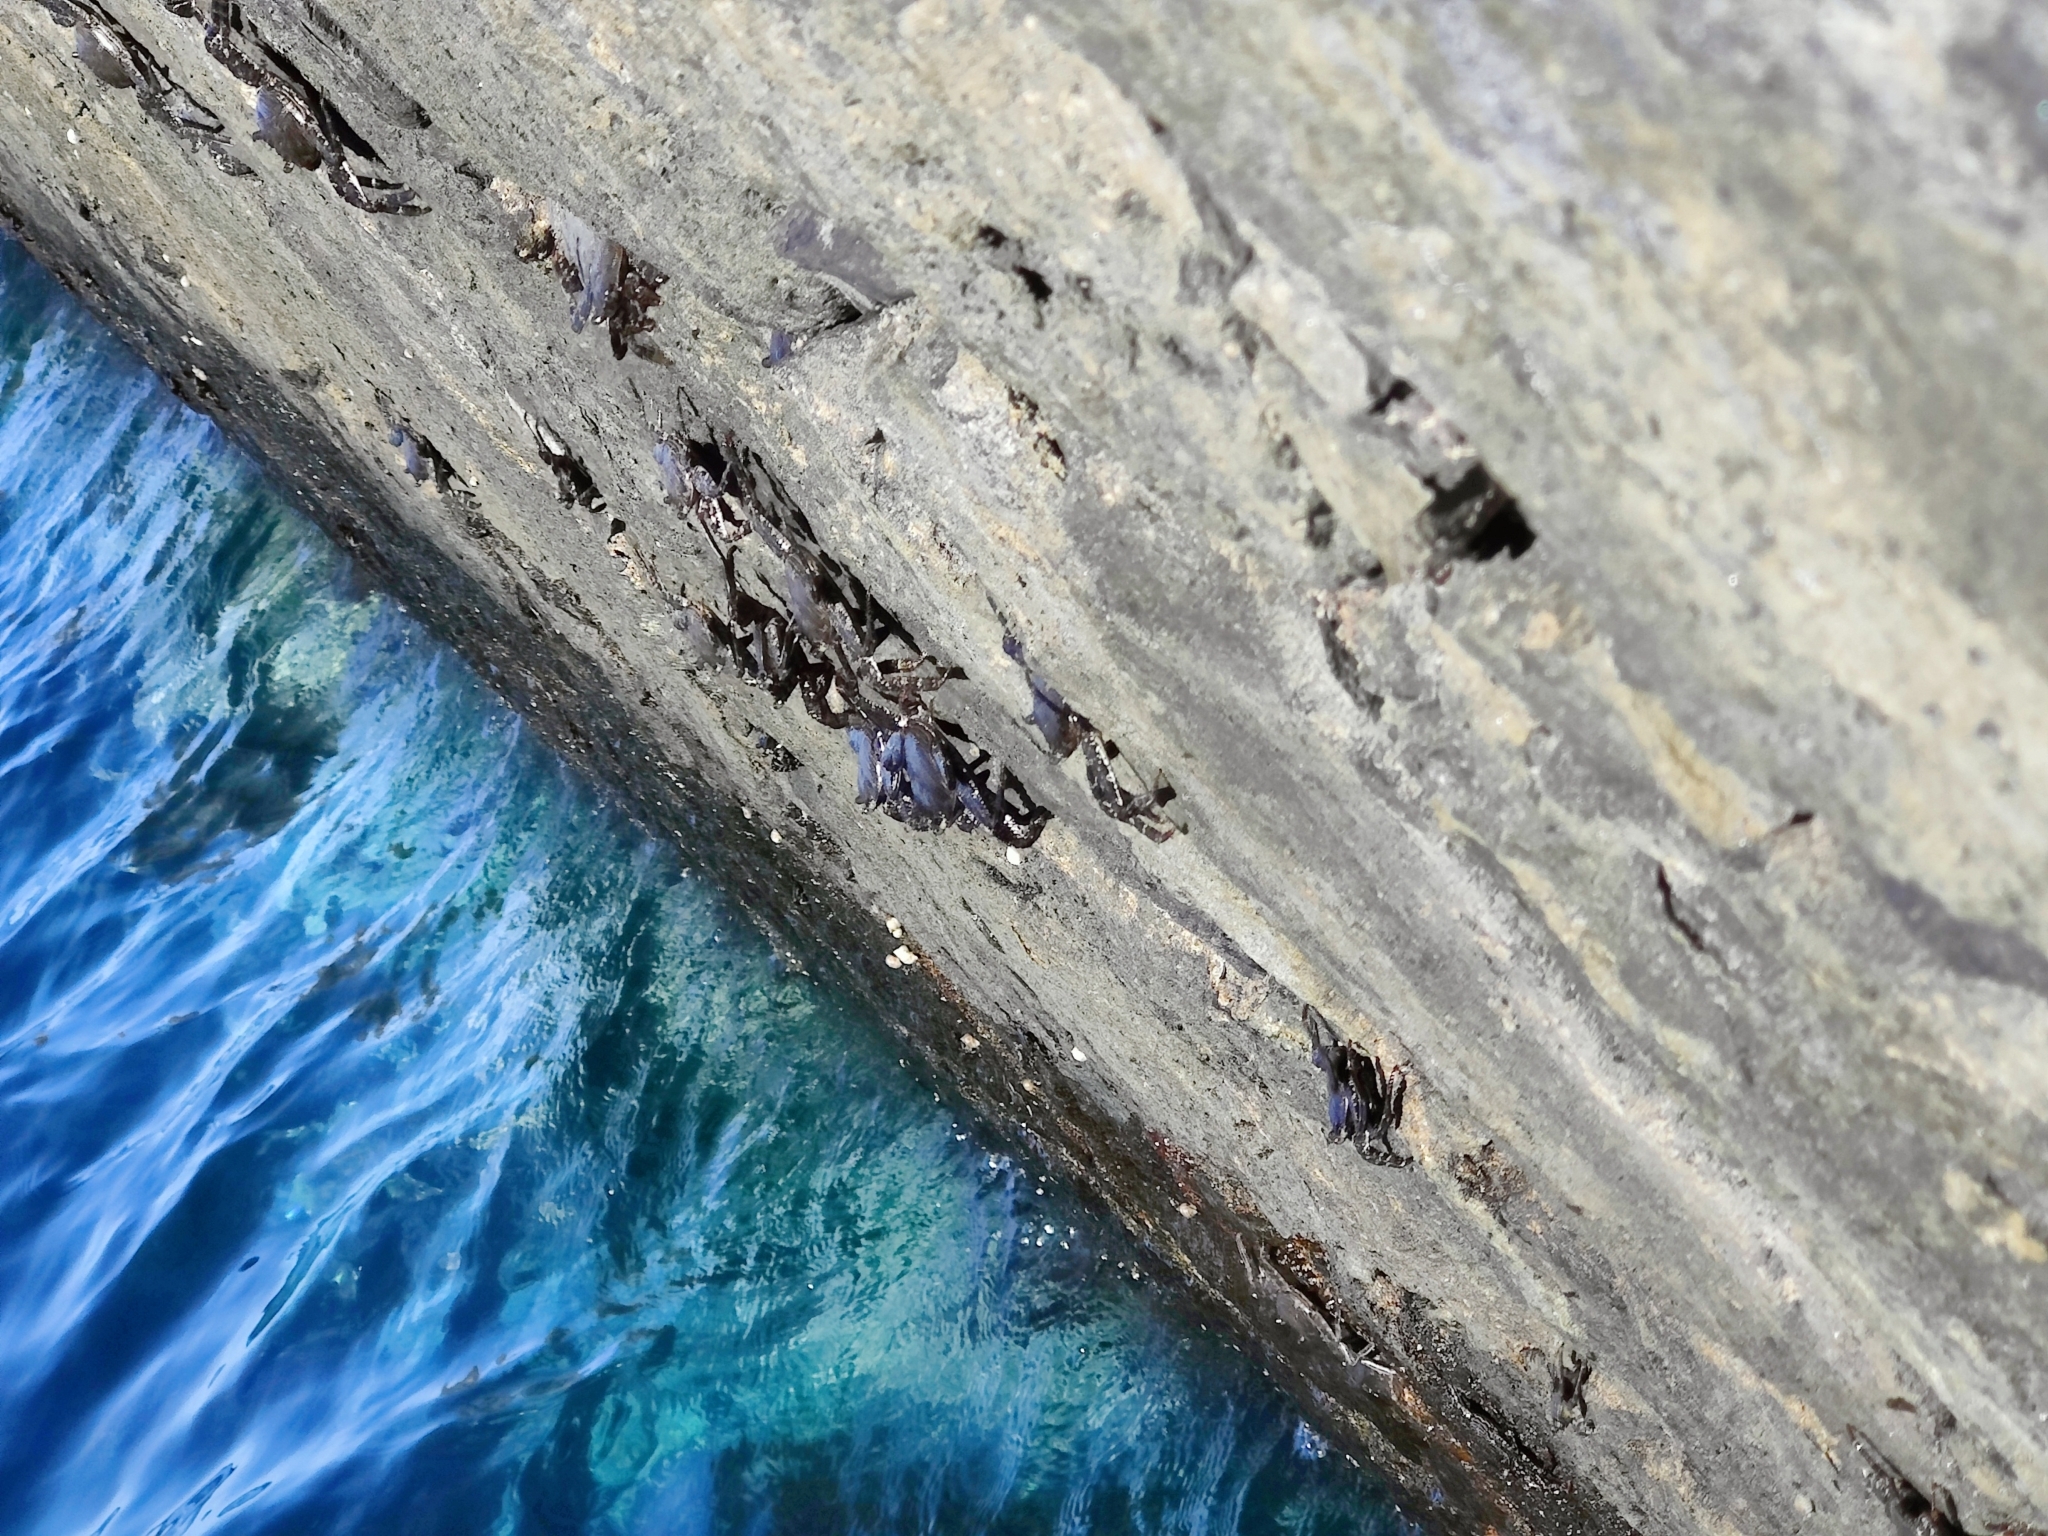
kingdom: Animalia
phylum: Arthropoda
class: Malacostraca
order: Decapoda
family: Grapsidae
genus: Grapsus
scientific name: Grapsus adscensionis
